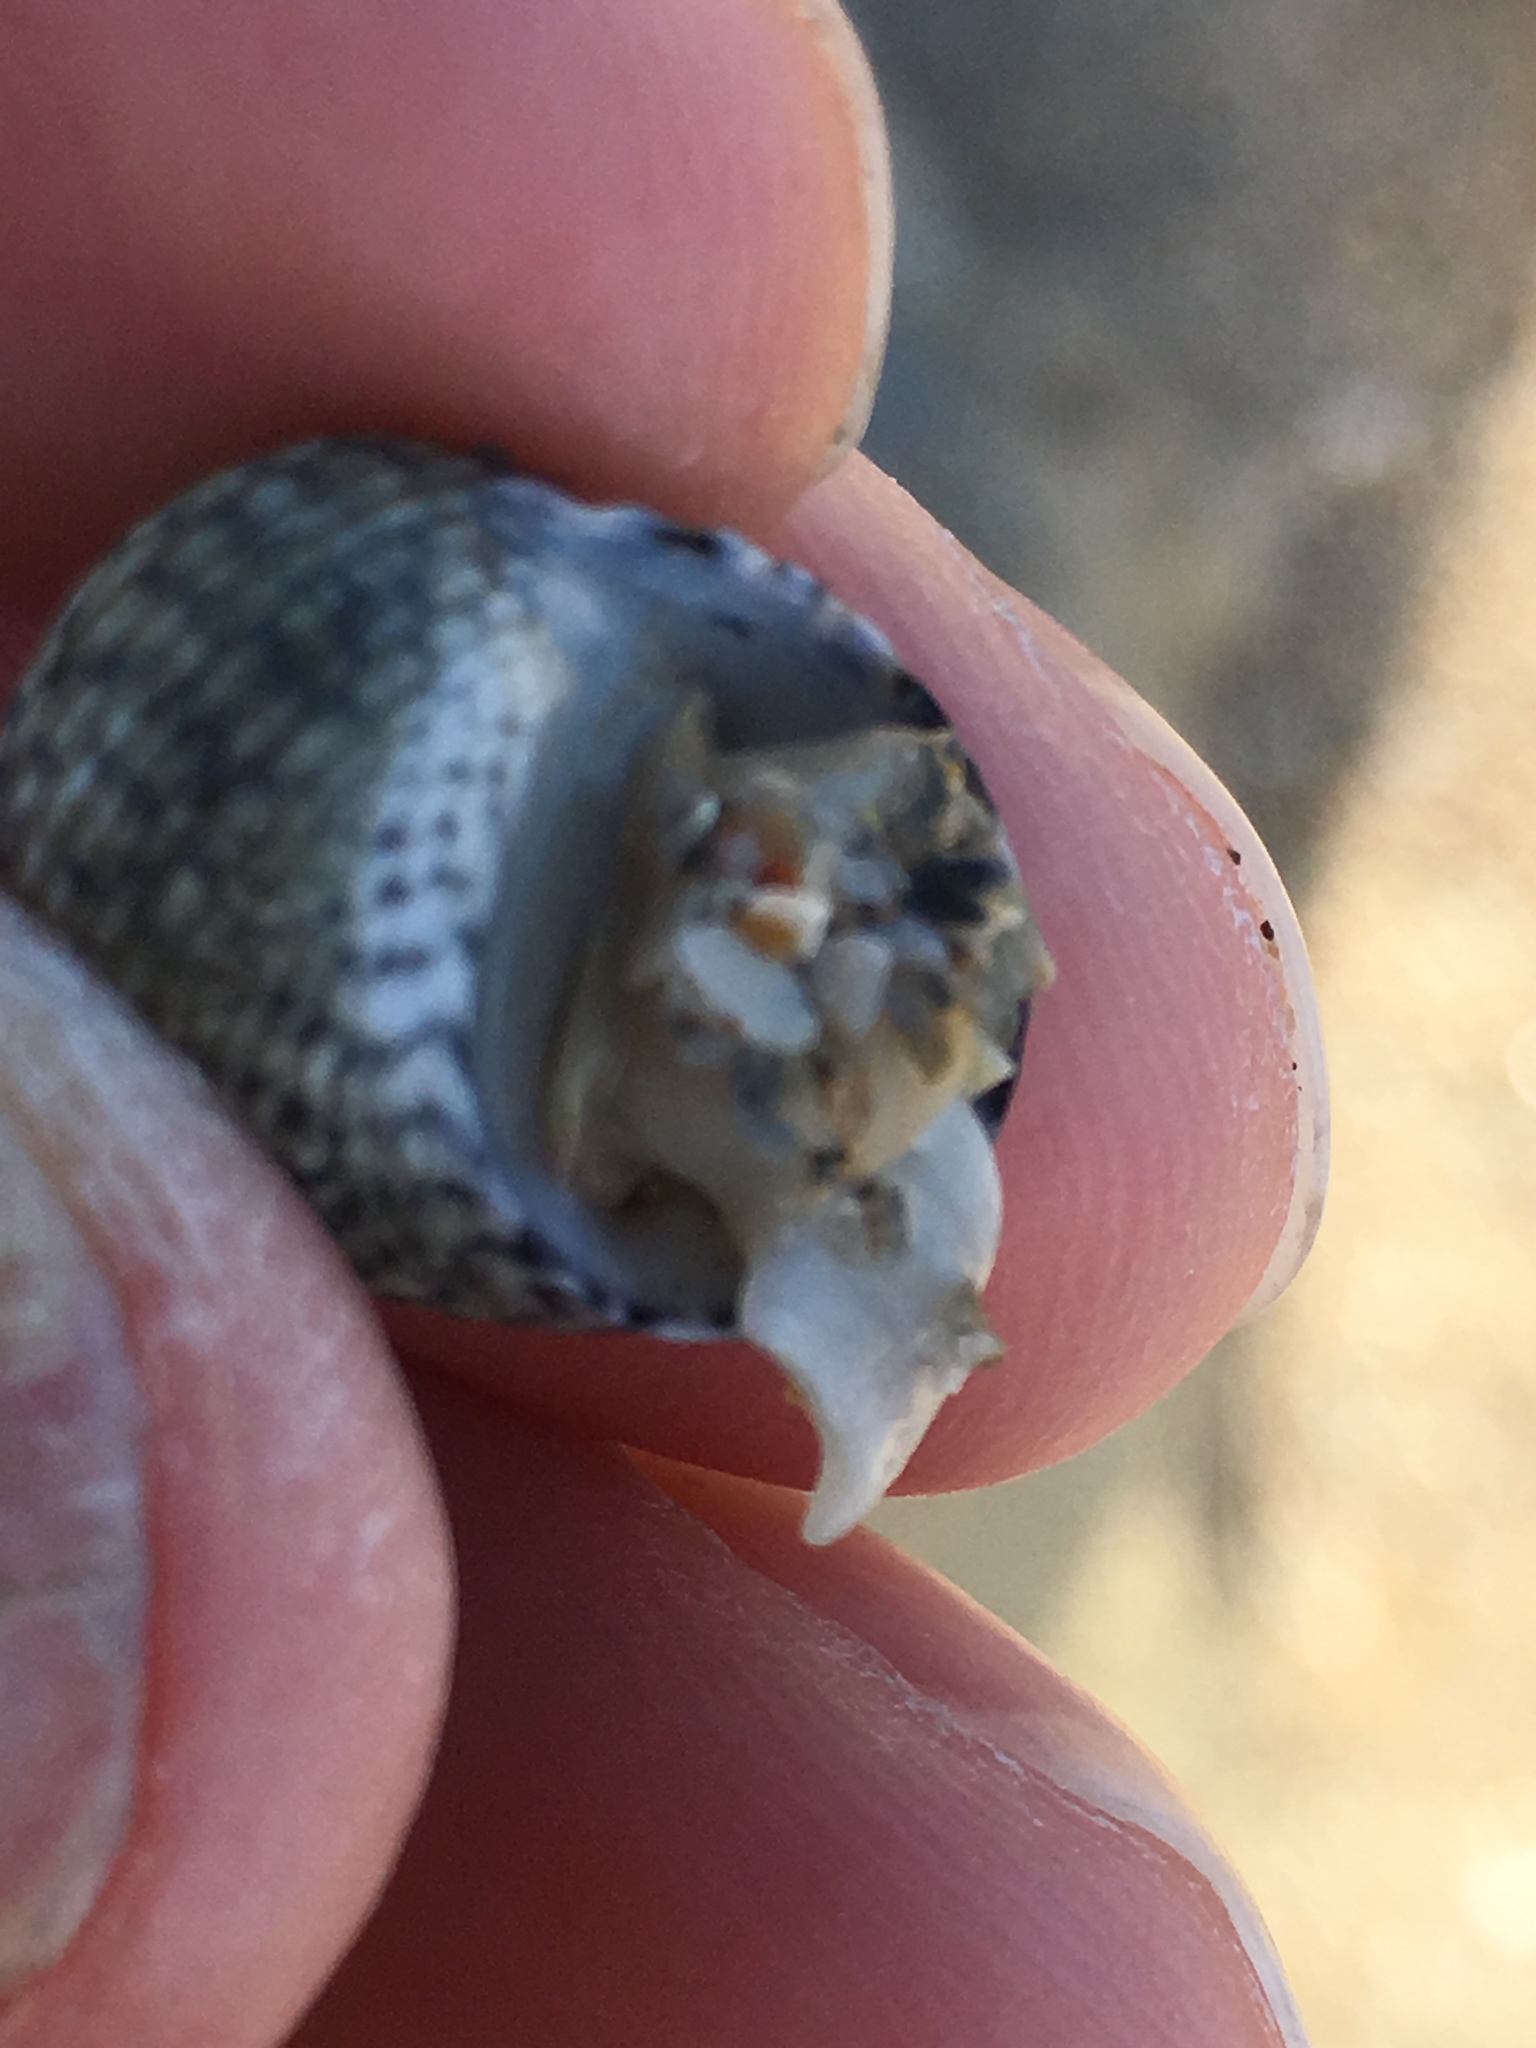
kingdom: Animalia
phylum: Mollusca
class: Gastropoda
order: Cycloneritida
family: Neritidae
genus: Nerita
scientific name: Nerita versicolor
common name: Four-tooth nerite
